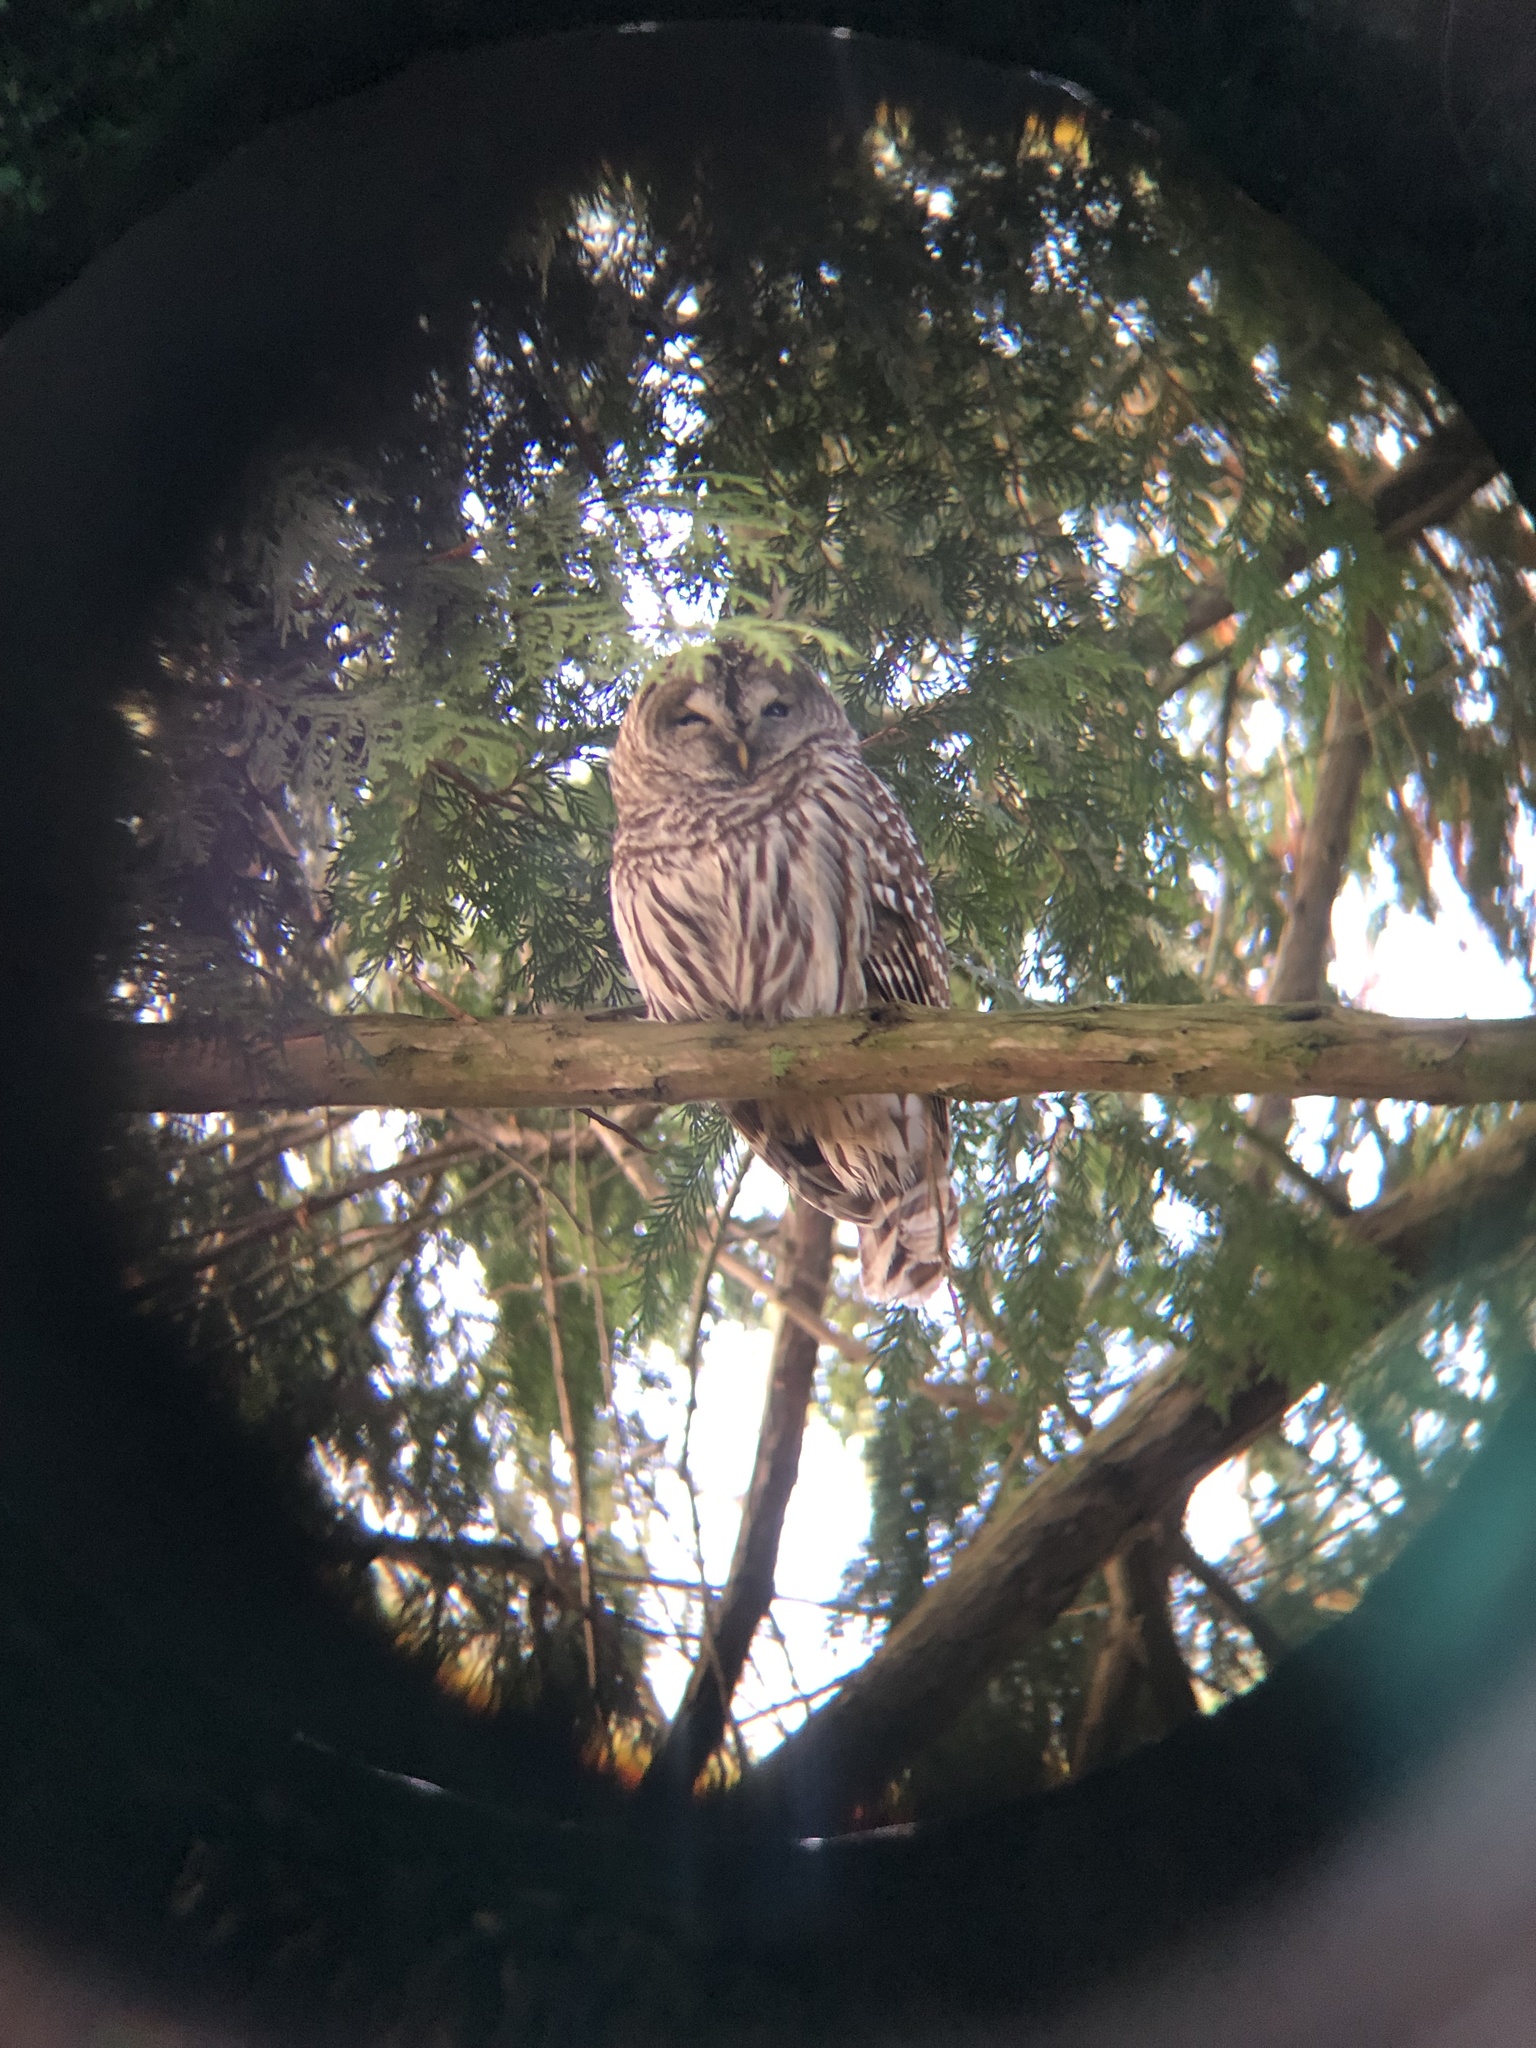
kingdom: Animalia
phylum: Chordata
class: Aves
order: Strigiformes
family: Strigidae
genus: Strix
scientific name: Strix varia
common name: Barred owl
